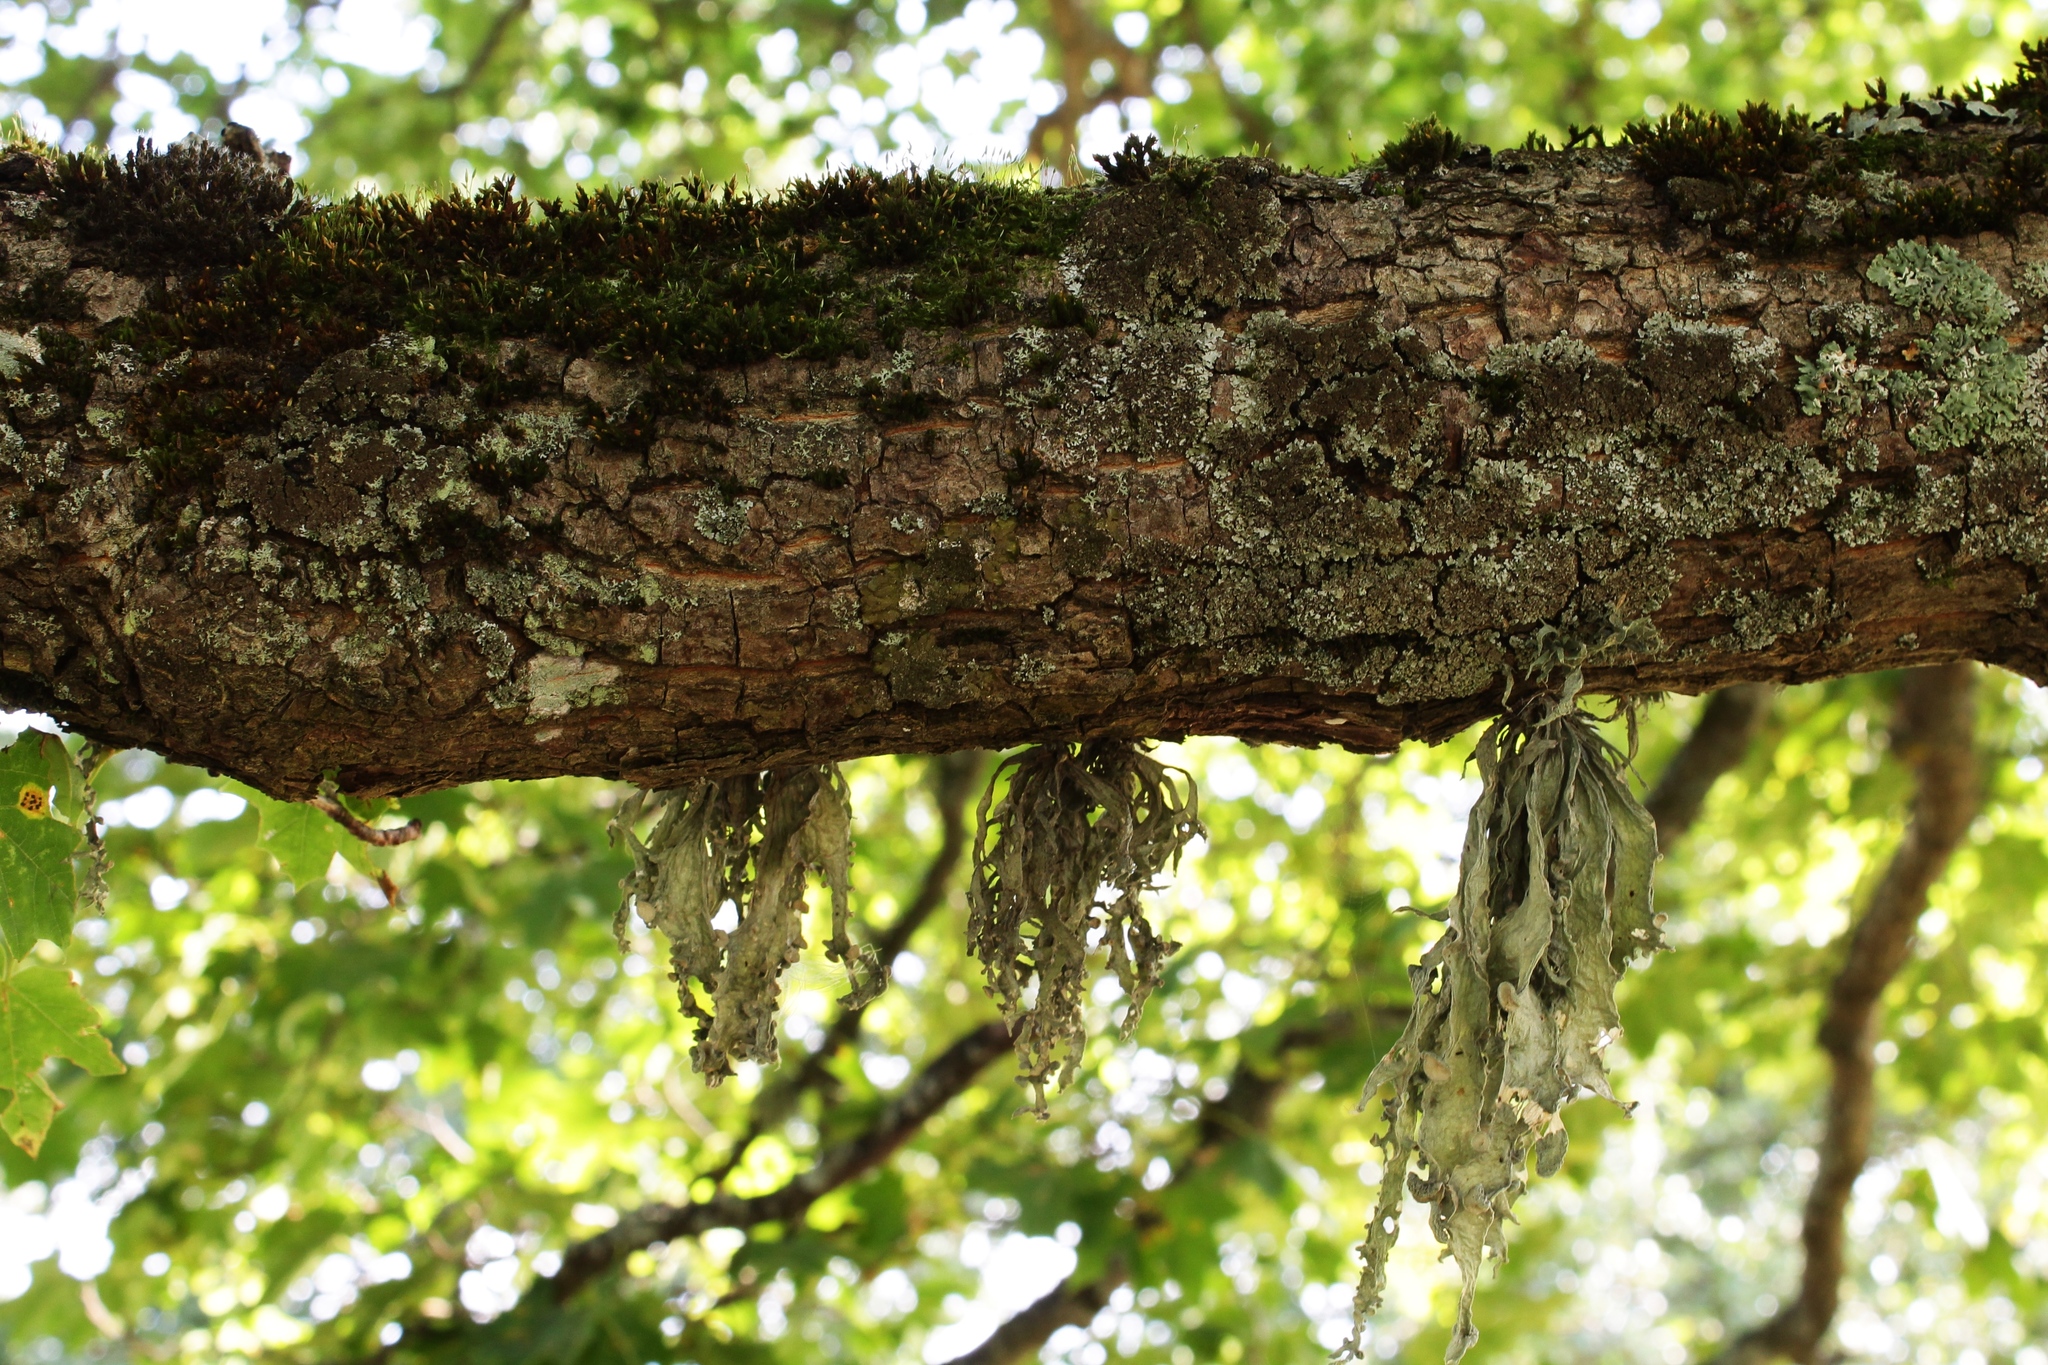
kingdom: Fungi
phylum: Ascomycota
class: Lecanoromycetes
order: Lecanorales
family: Ramalinaceae
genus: Ramalina
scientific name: Ramalina fraxinea
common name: Cartilage lichen
